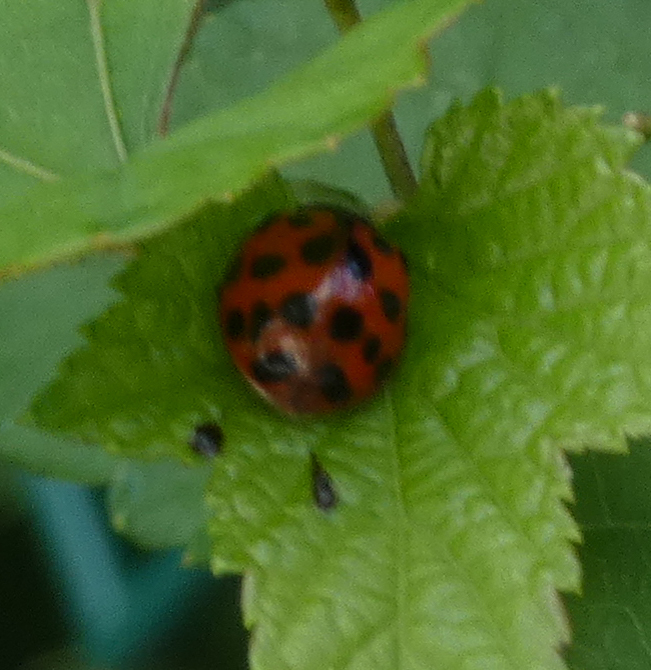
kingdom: Animalia
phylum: Arthropoda
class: Insecta
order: Coleoptera
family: Coccinellidae
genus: Harmonia
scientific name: Harmonia axyridis
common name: Harlequin ladybird
